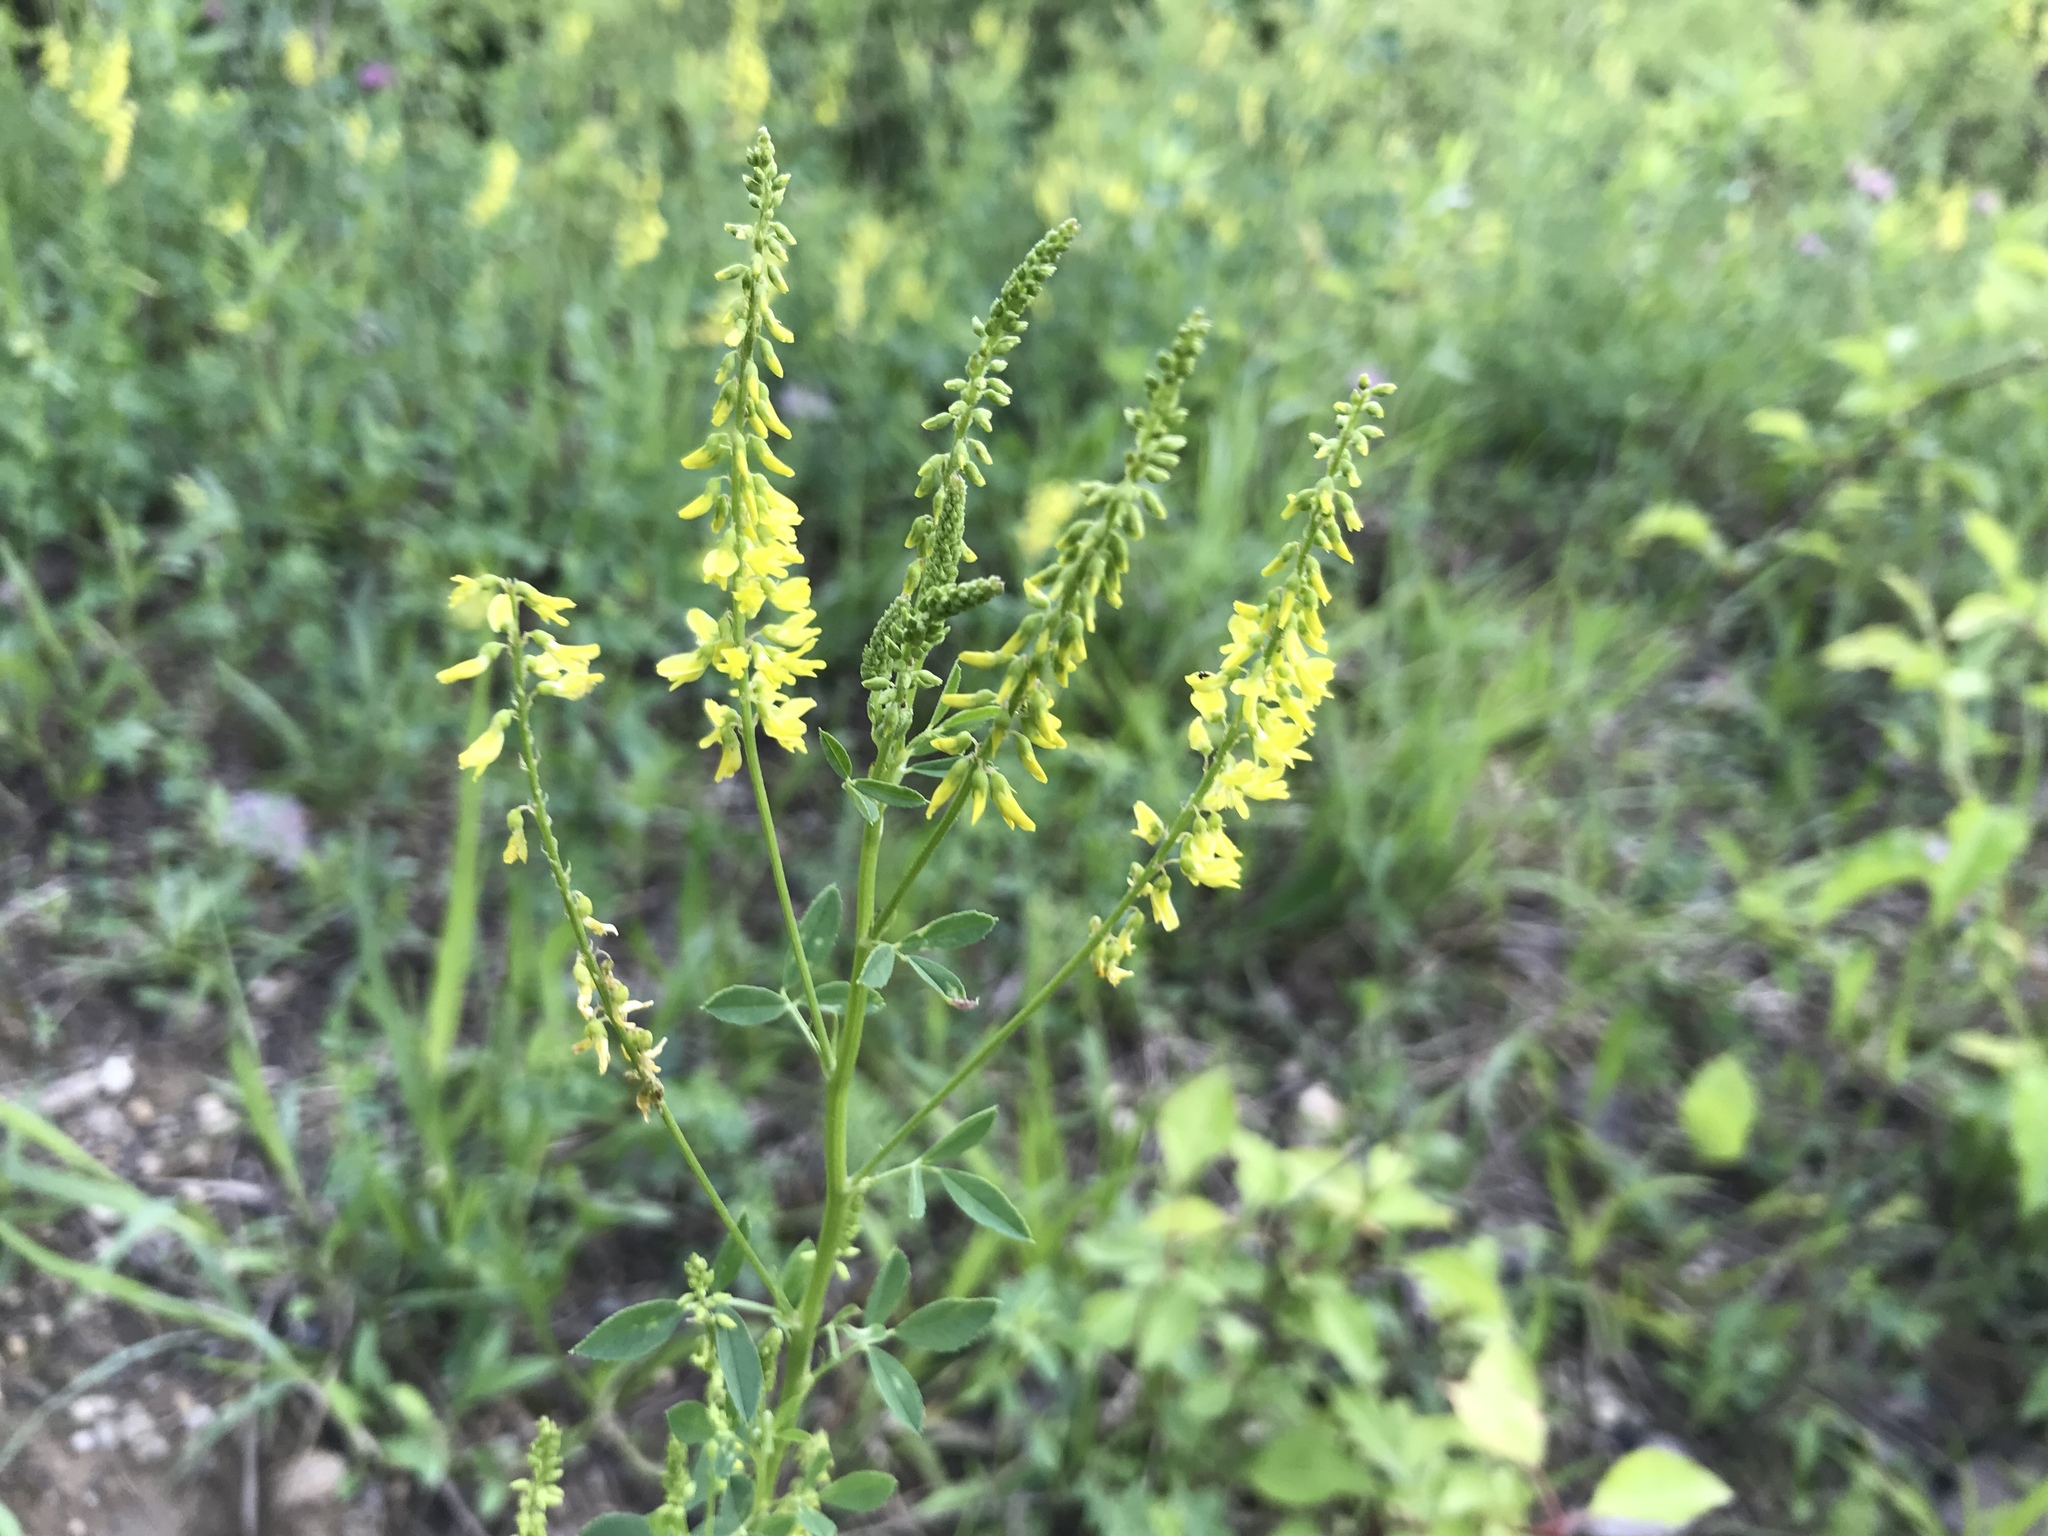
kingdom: Plantae
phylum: Tracheophyta
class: Magnoliopsida
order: Fabales
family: Fabaceae
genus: Melilotus
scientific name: Melilotus officinalis
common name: Sweetclover
